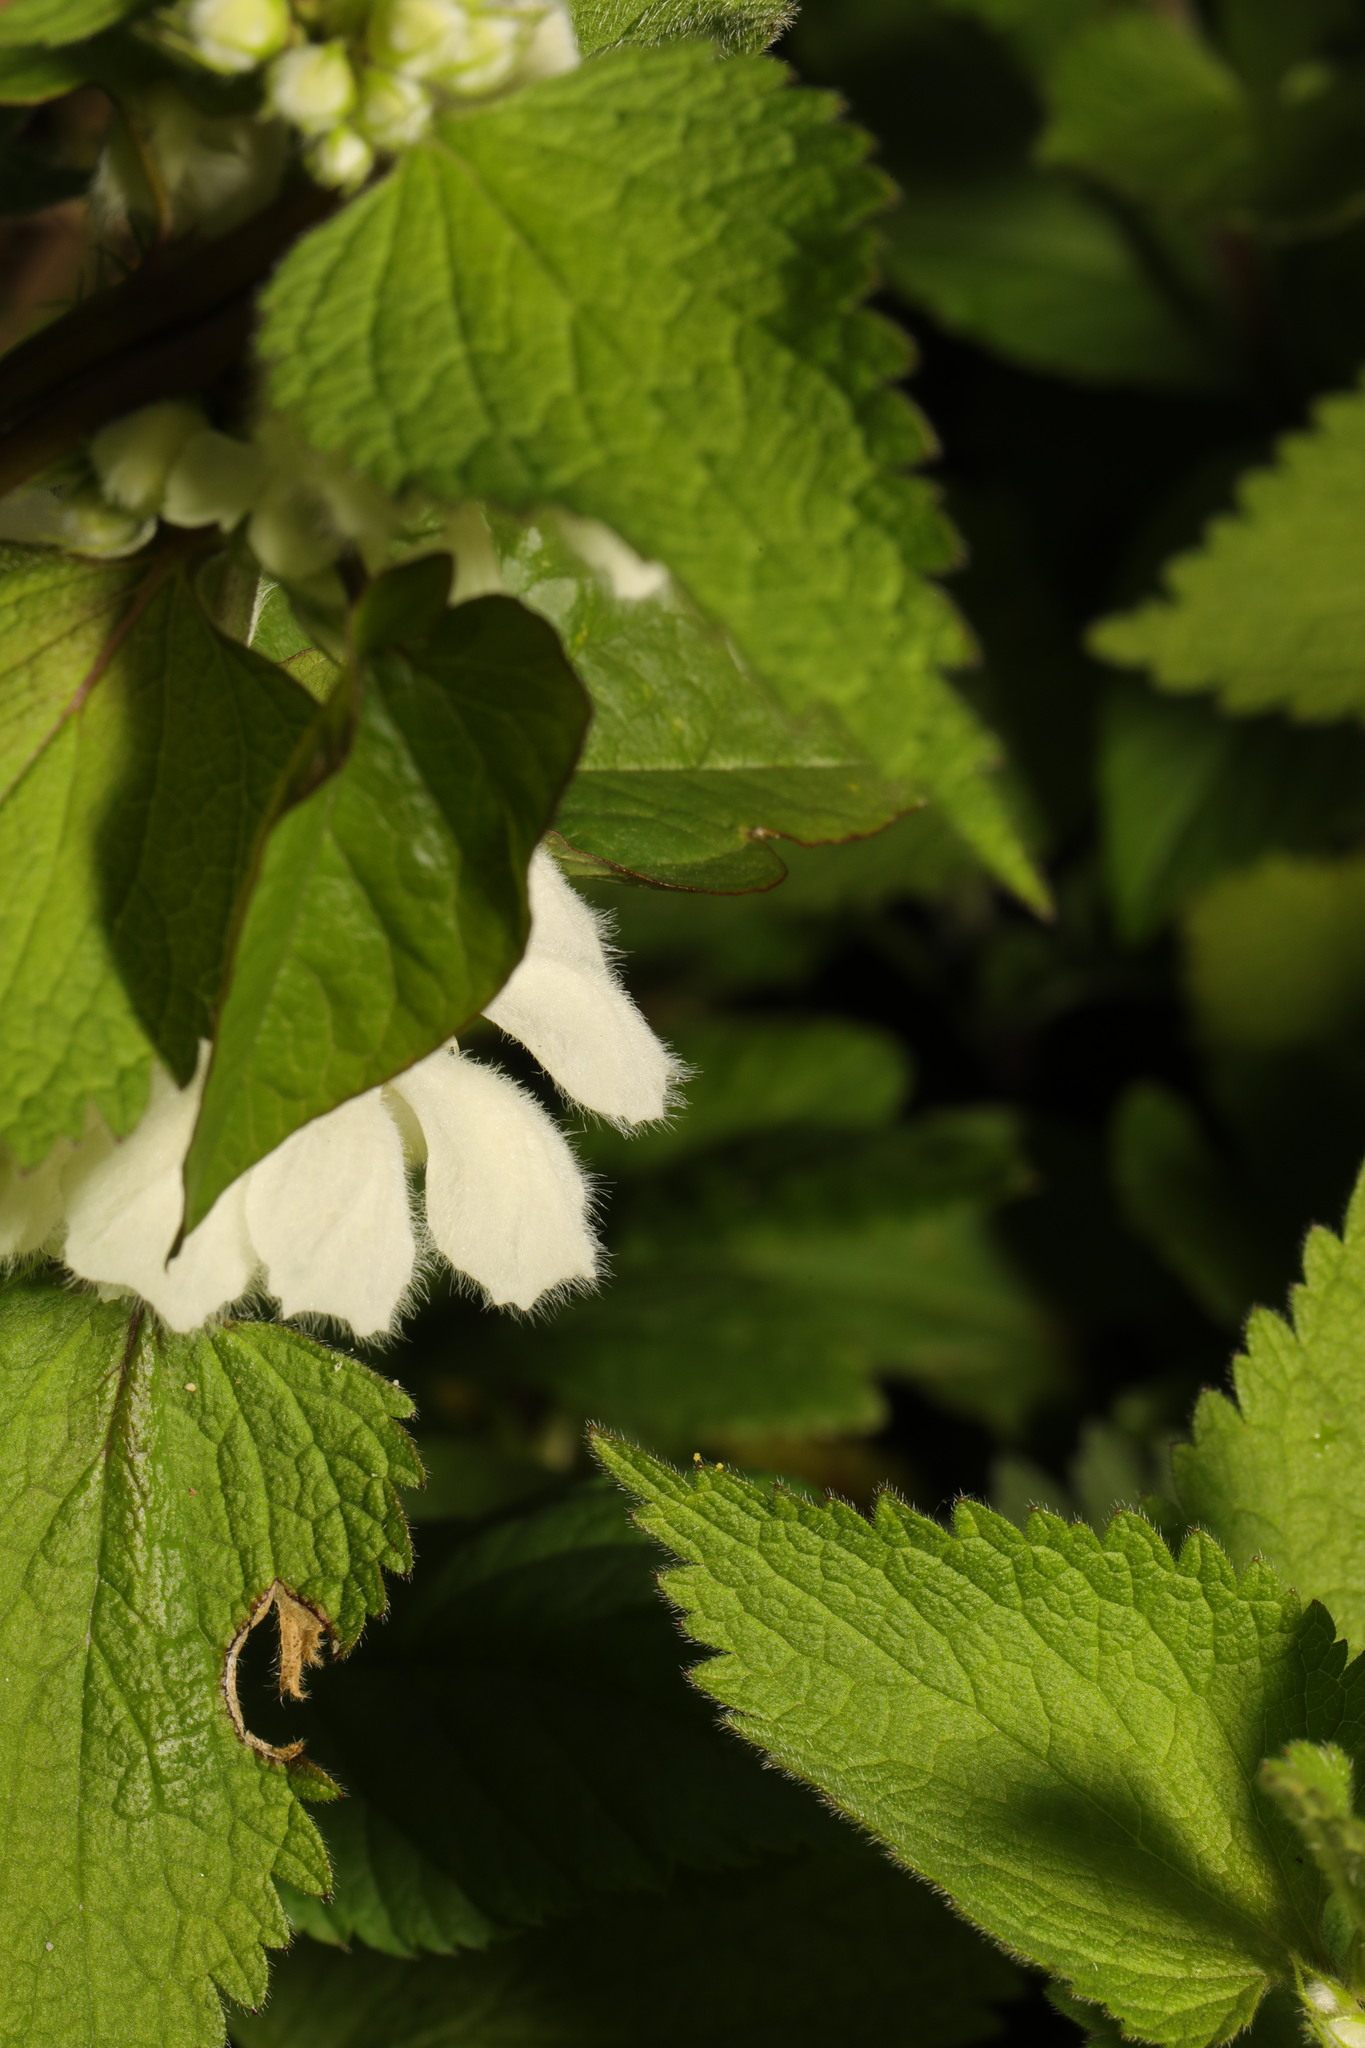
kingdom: Plantae
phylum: Tracheophyta
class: Magnoliopsida
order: Lamiales
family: Lamiaceae
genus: Lamium
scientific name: Lamium album
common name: White dead-nettle
